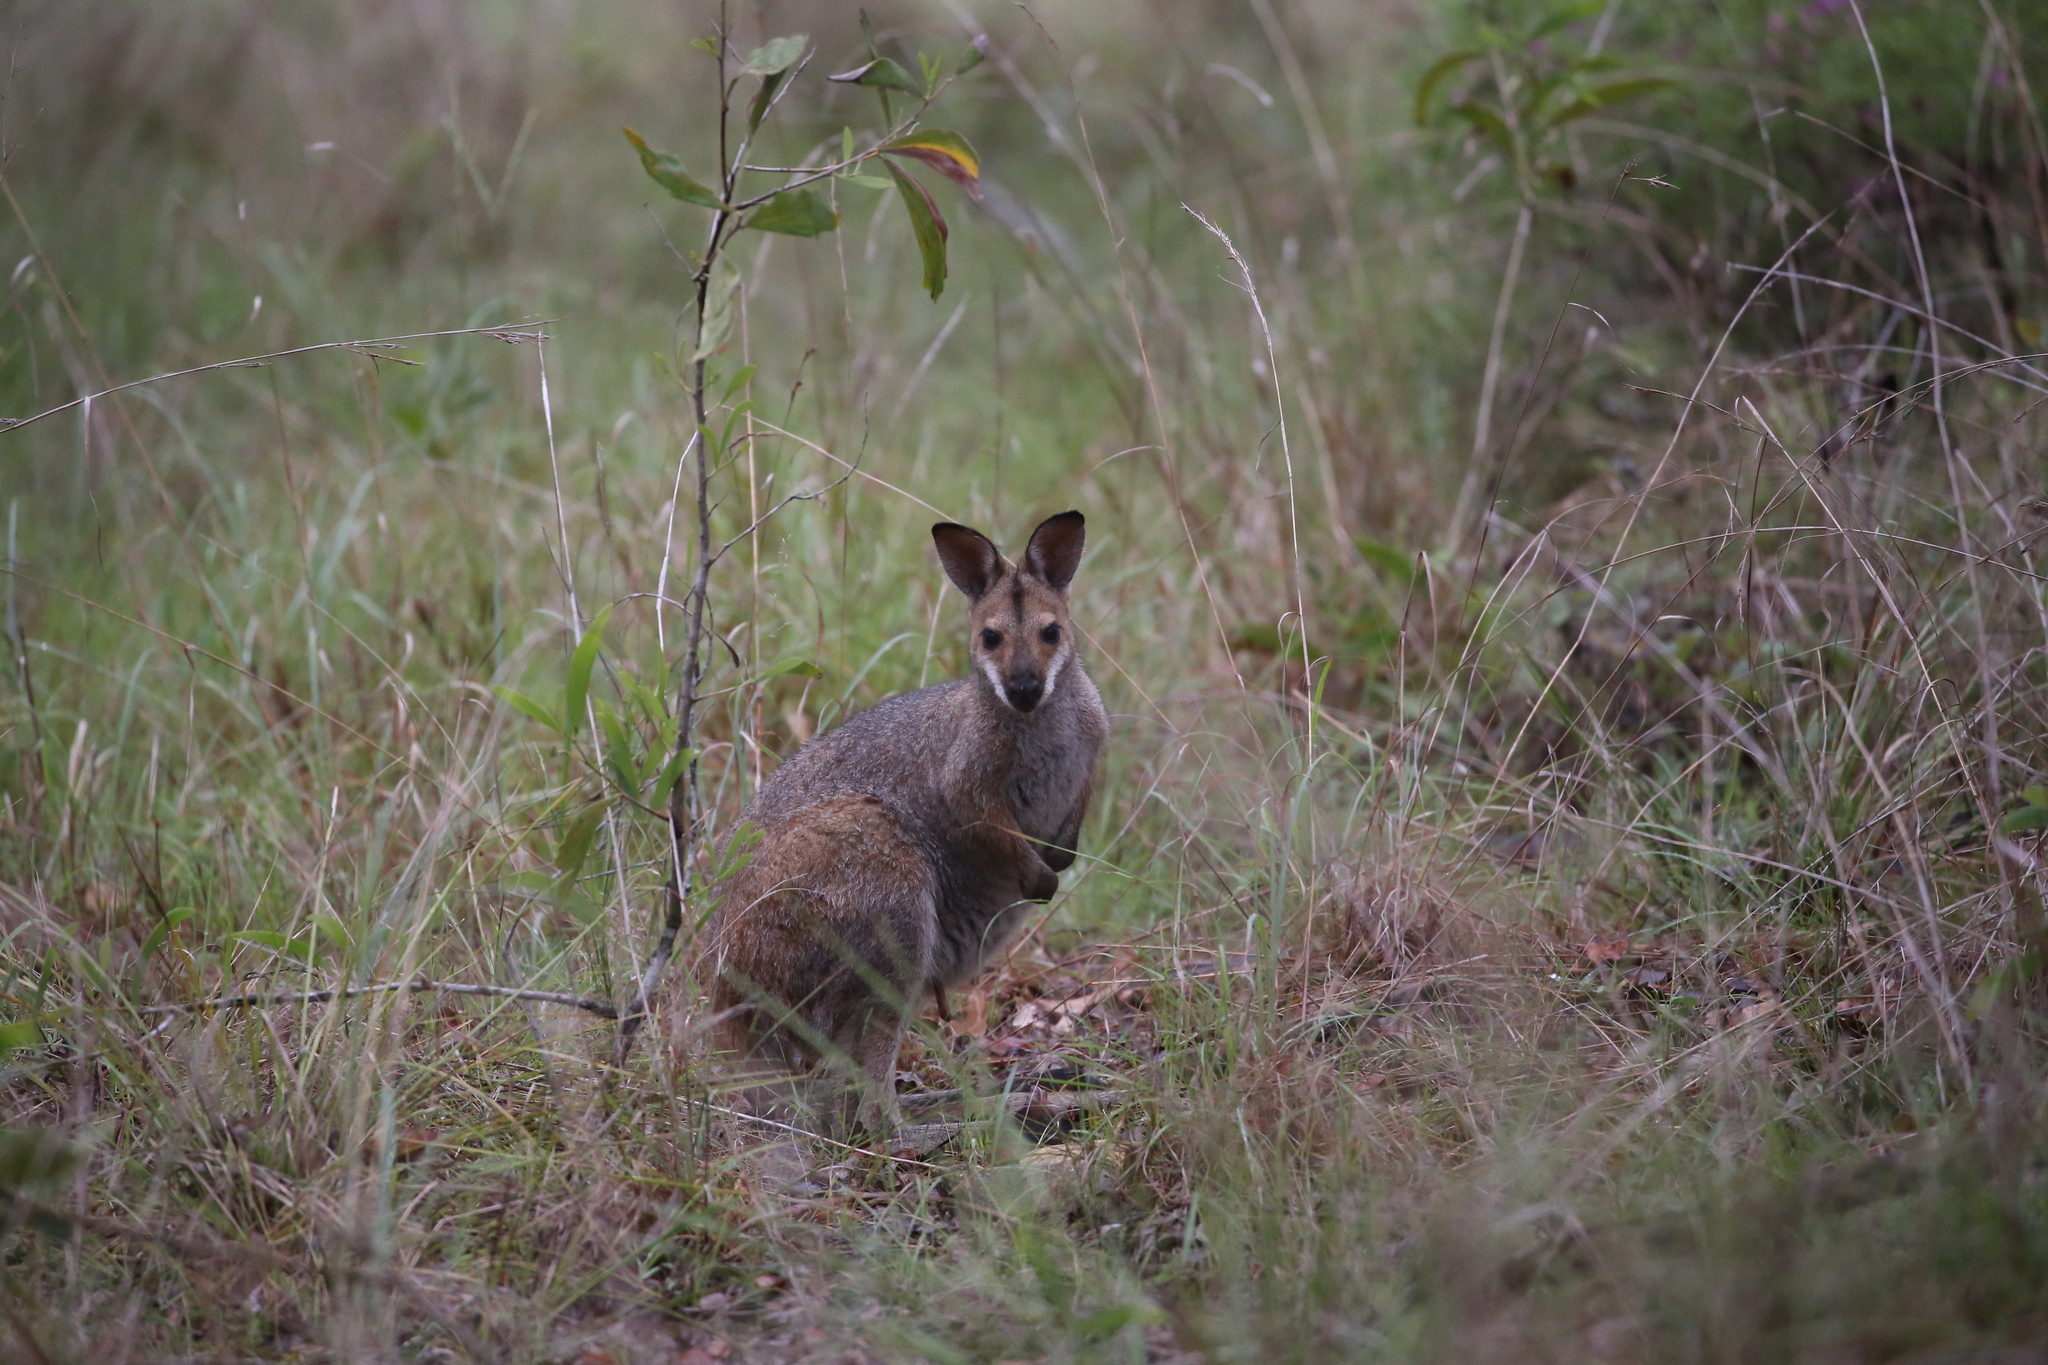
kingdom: Animalia
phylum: Chordata
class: Mammalia
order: Diprotodontia
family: Macropodidae
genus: Notamacropus
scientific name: Notamacropus rufogriseus
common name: Red-necked wallaby
